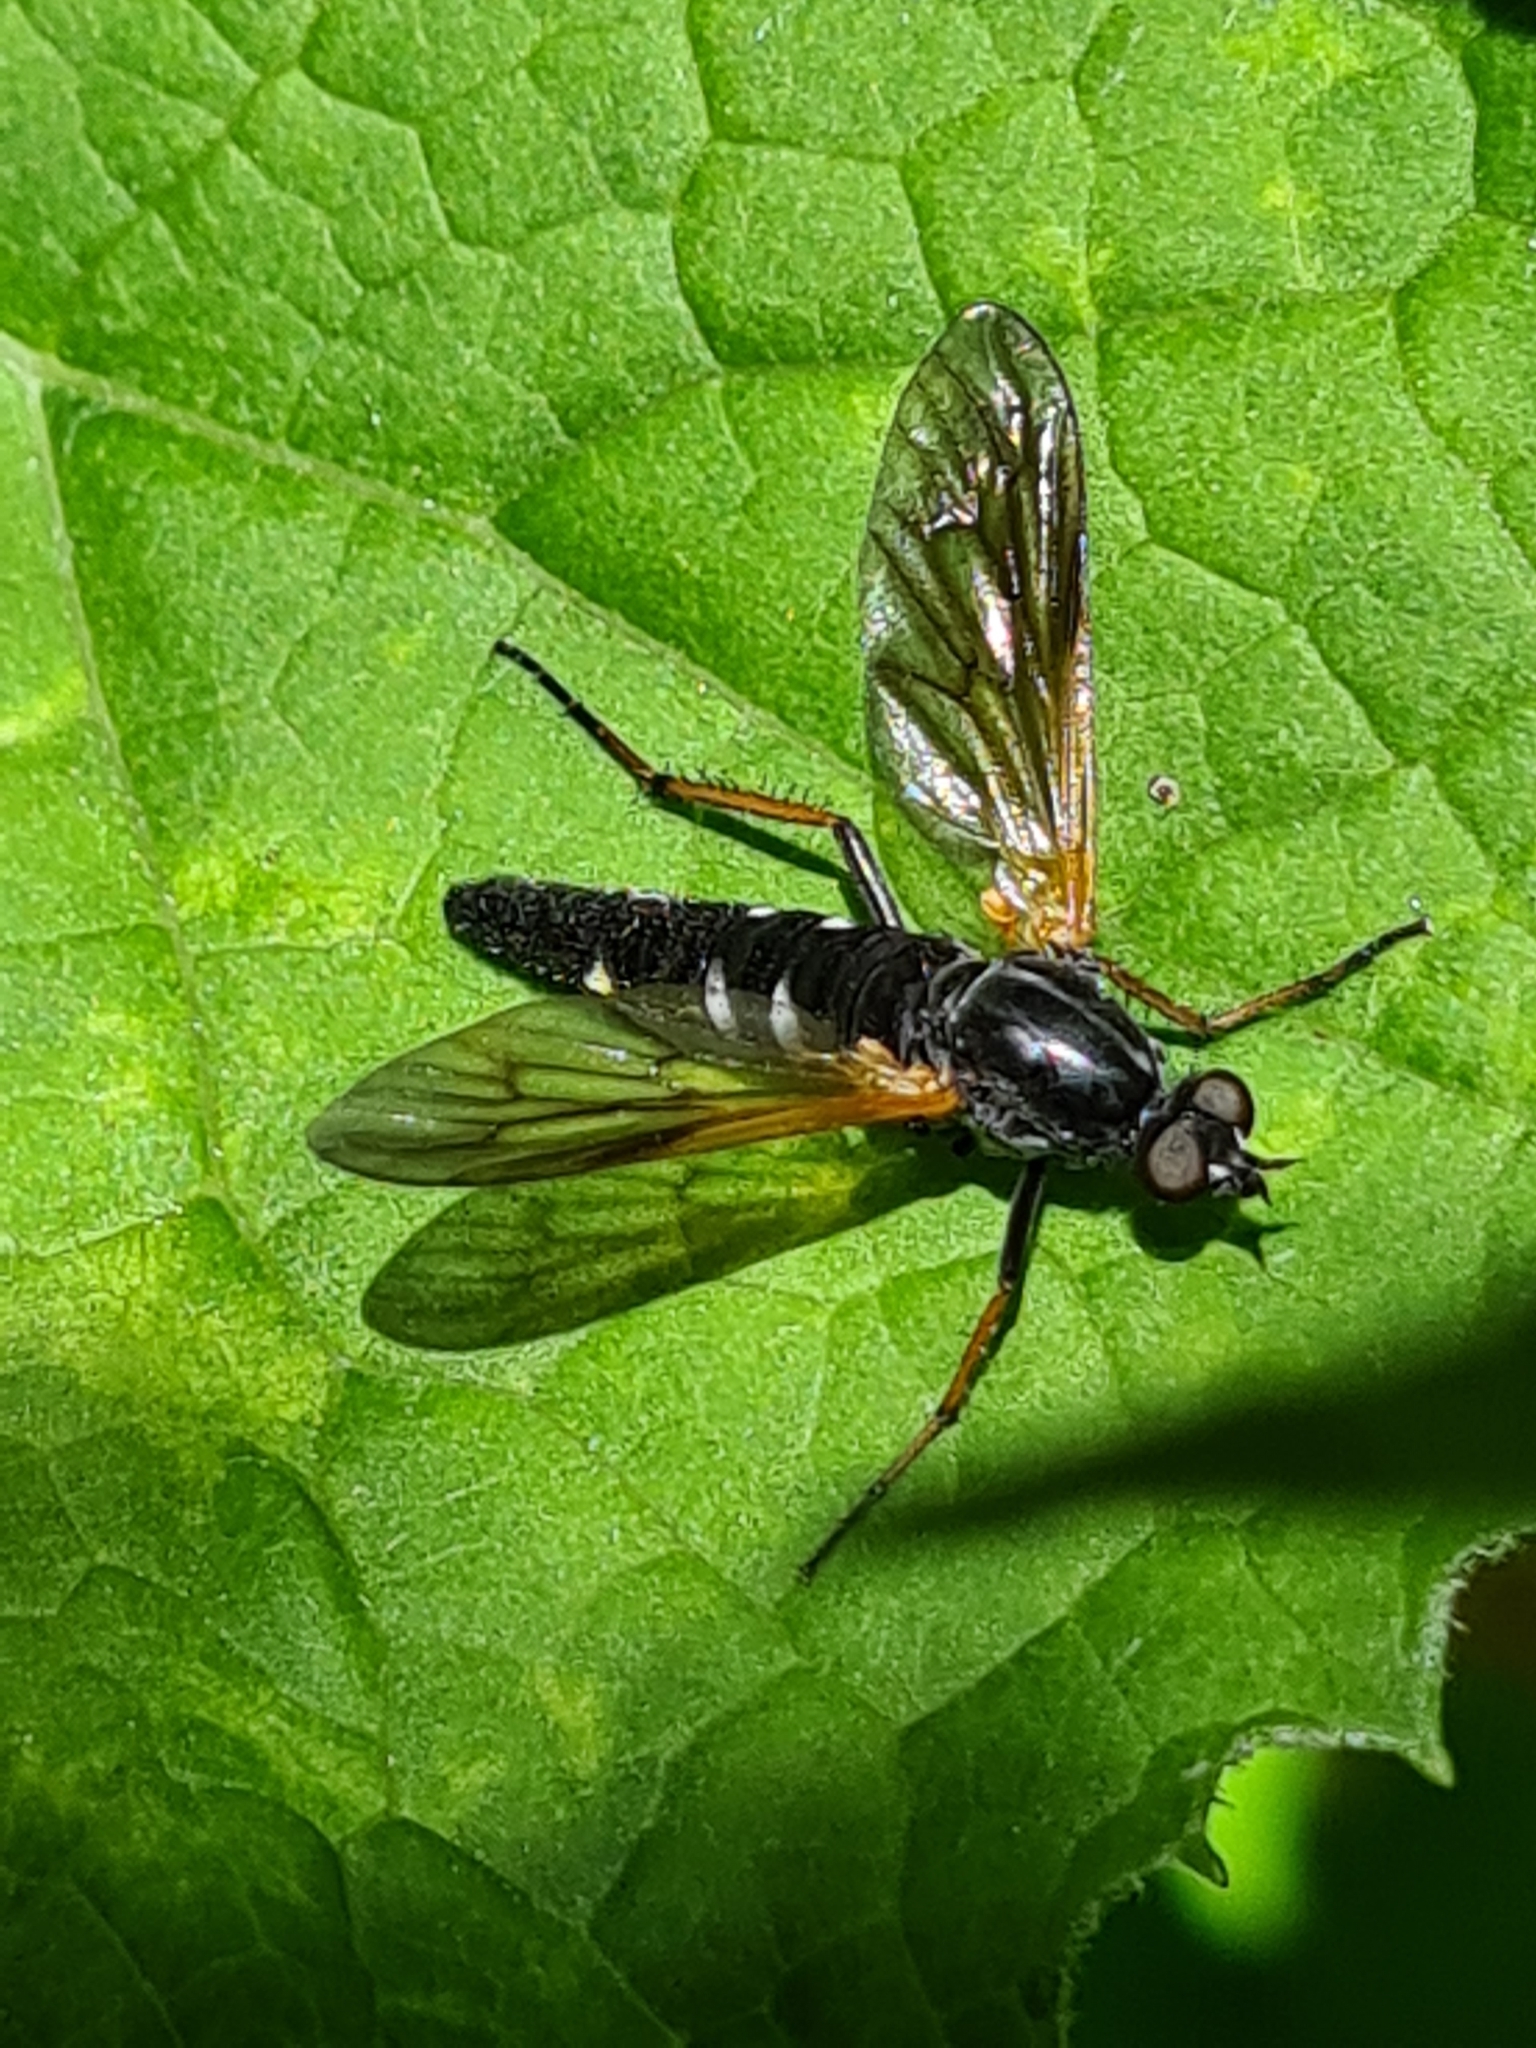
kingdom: Animalia
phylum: Arthropoda
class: Insecta
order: Diptera
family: Therevidae
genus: Pandivirilia
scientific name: Pandivirilia eximia
